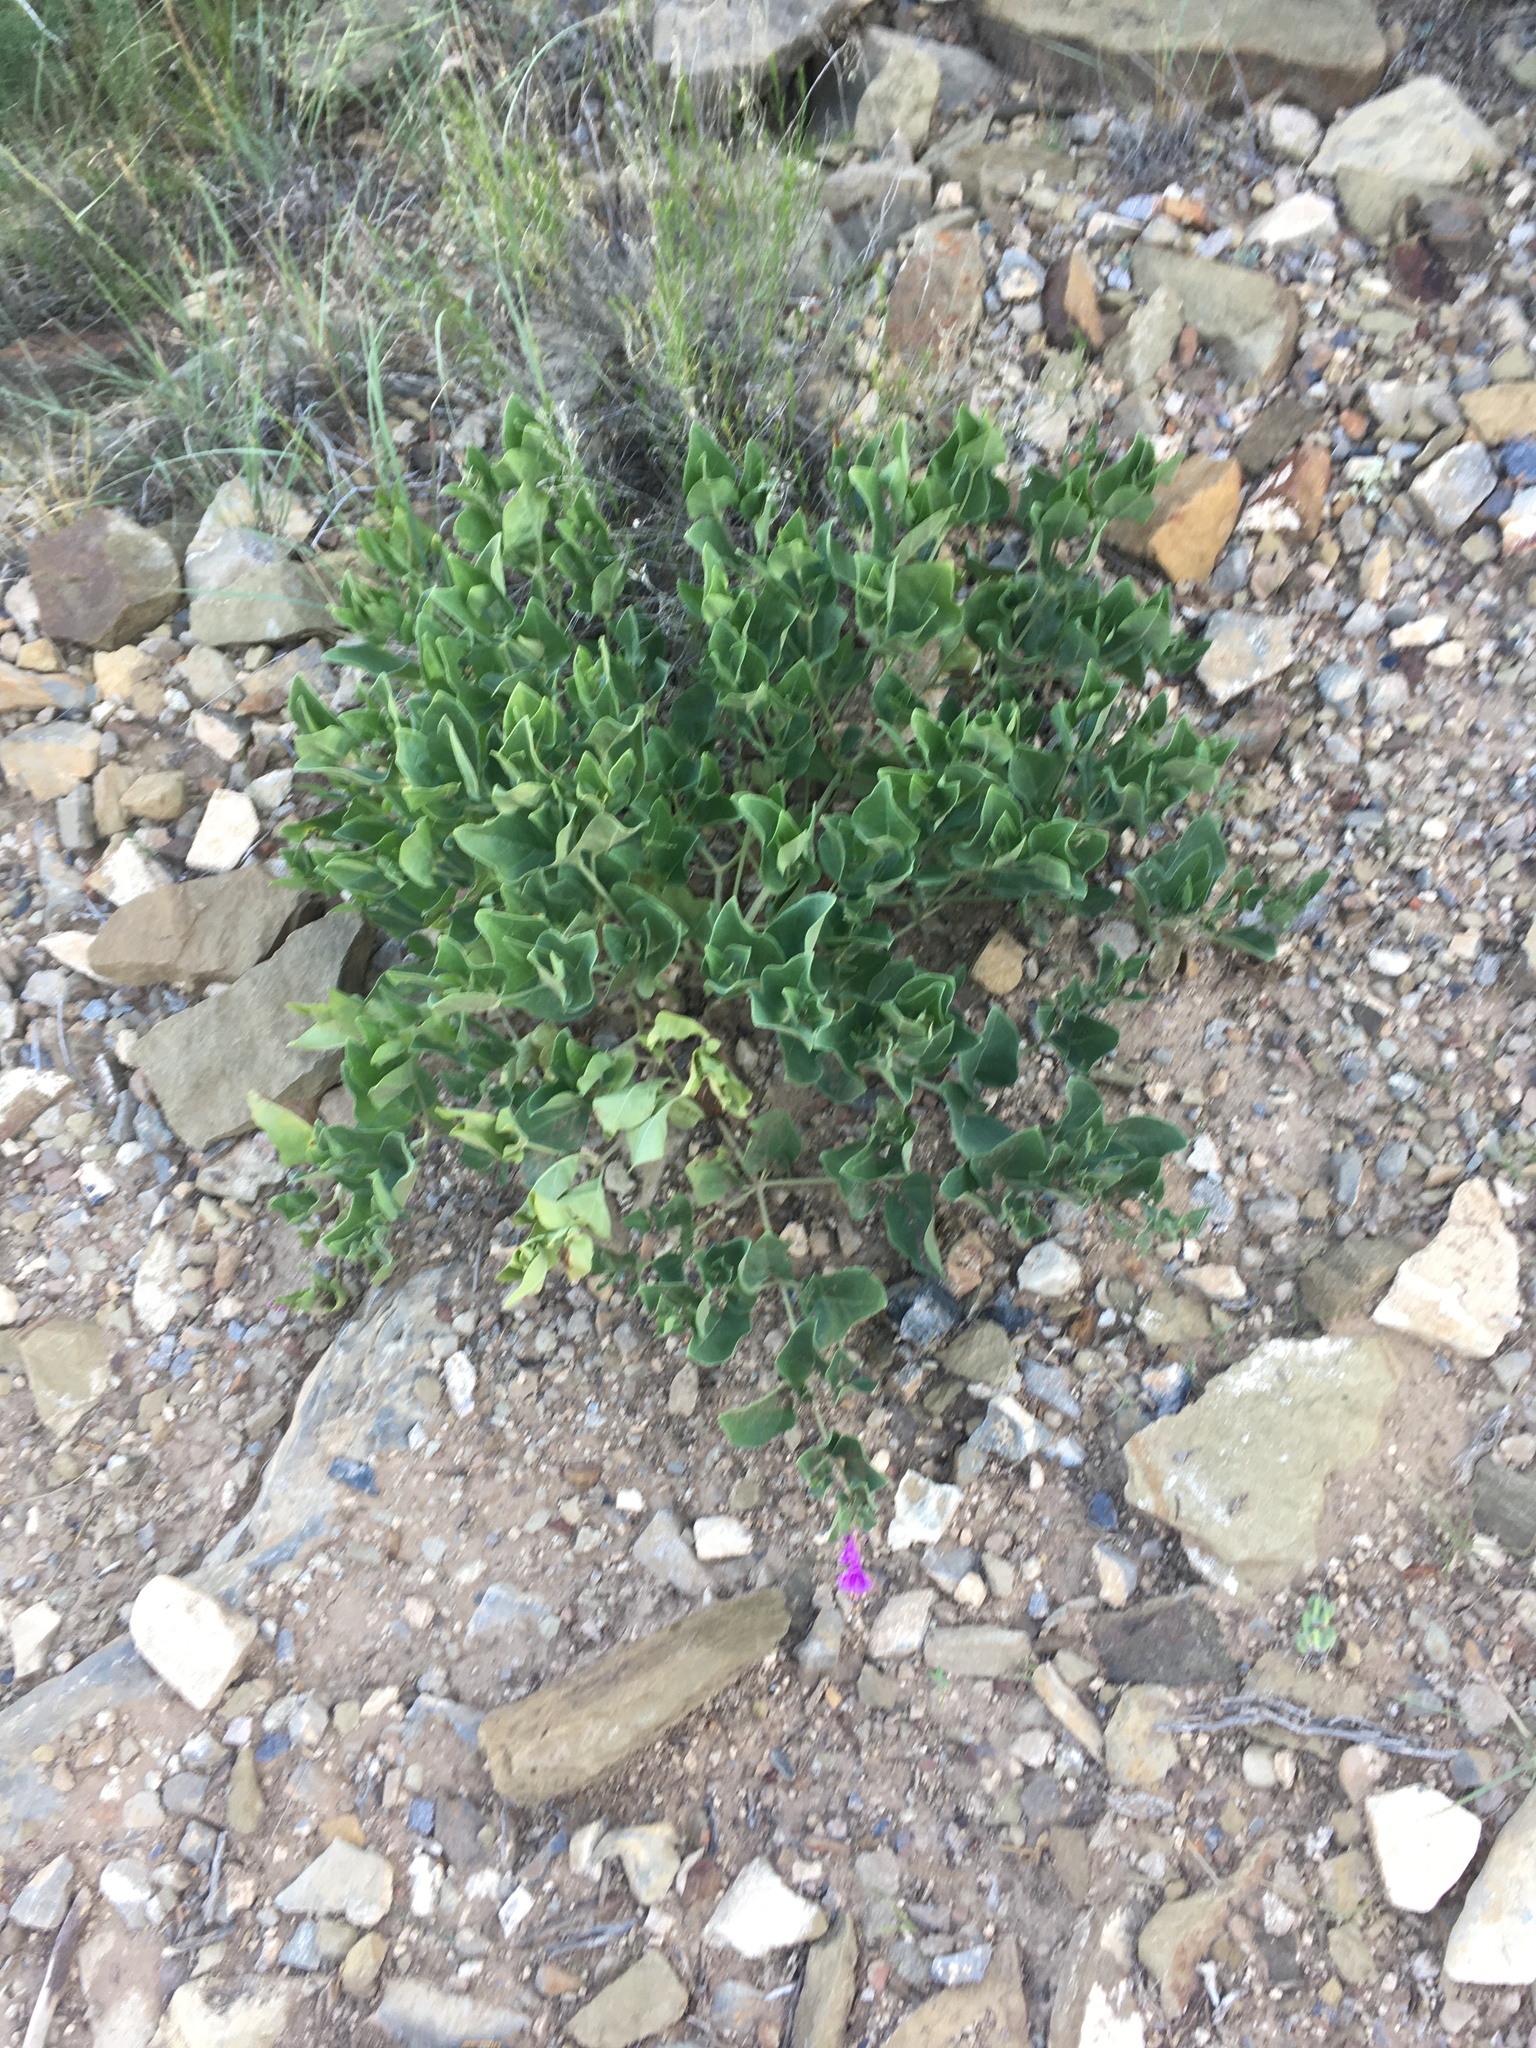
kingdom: Plantae
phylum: Tracheophyta
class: Magnoliopsida
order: Caryophyllales
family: Nyctaginaceae
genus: Mirabilis
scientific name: Mirabilis multiflora
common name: Froebel's four-o'clock
